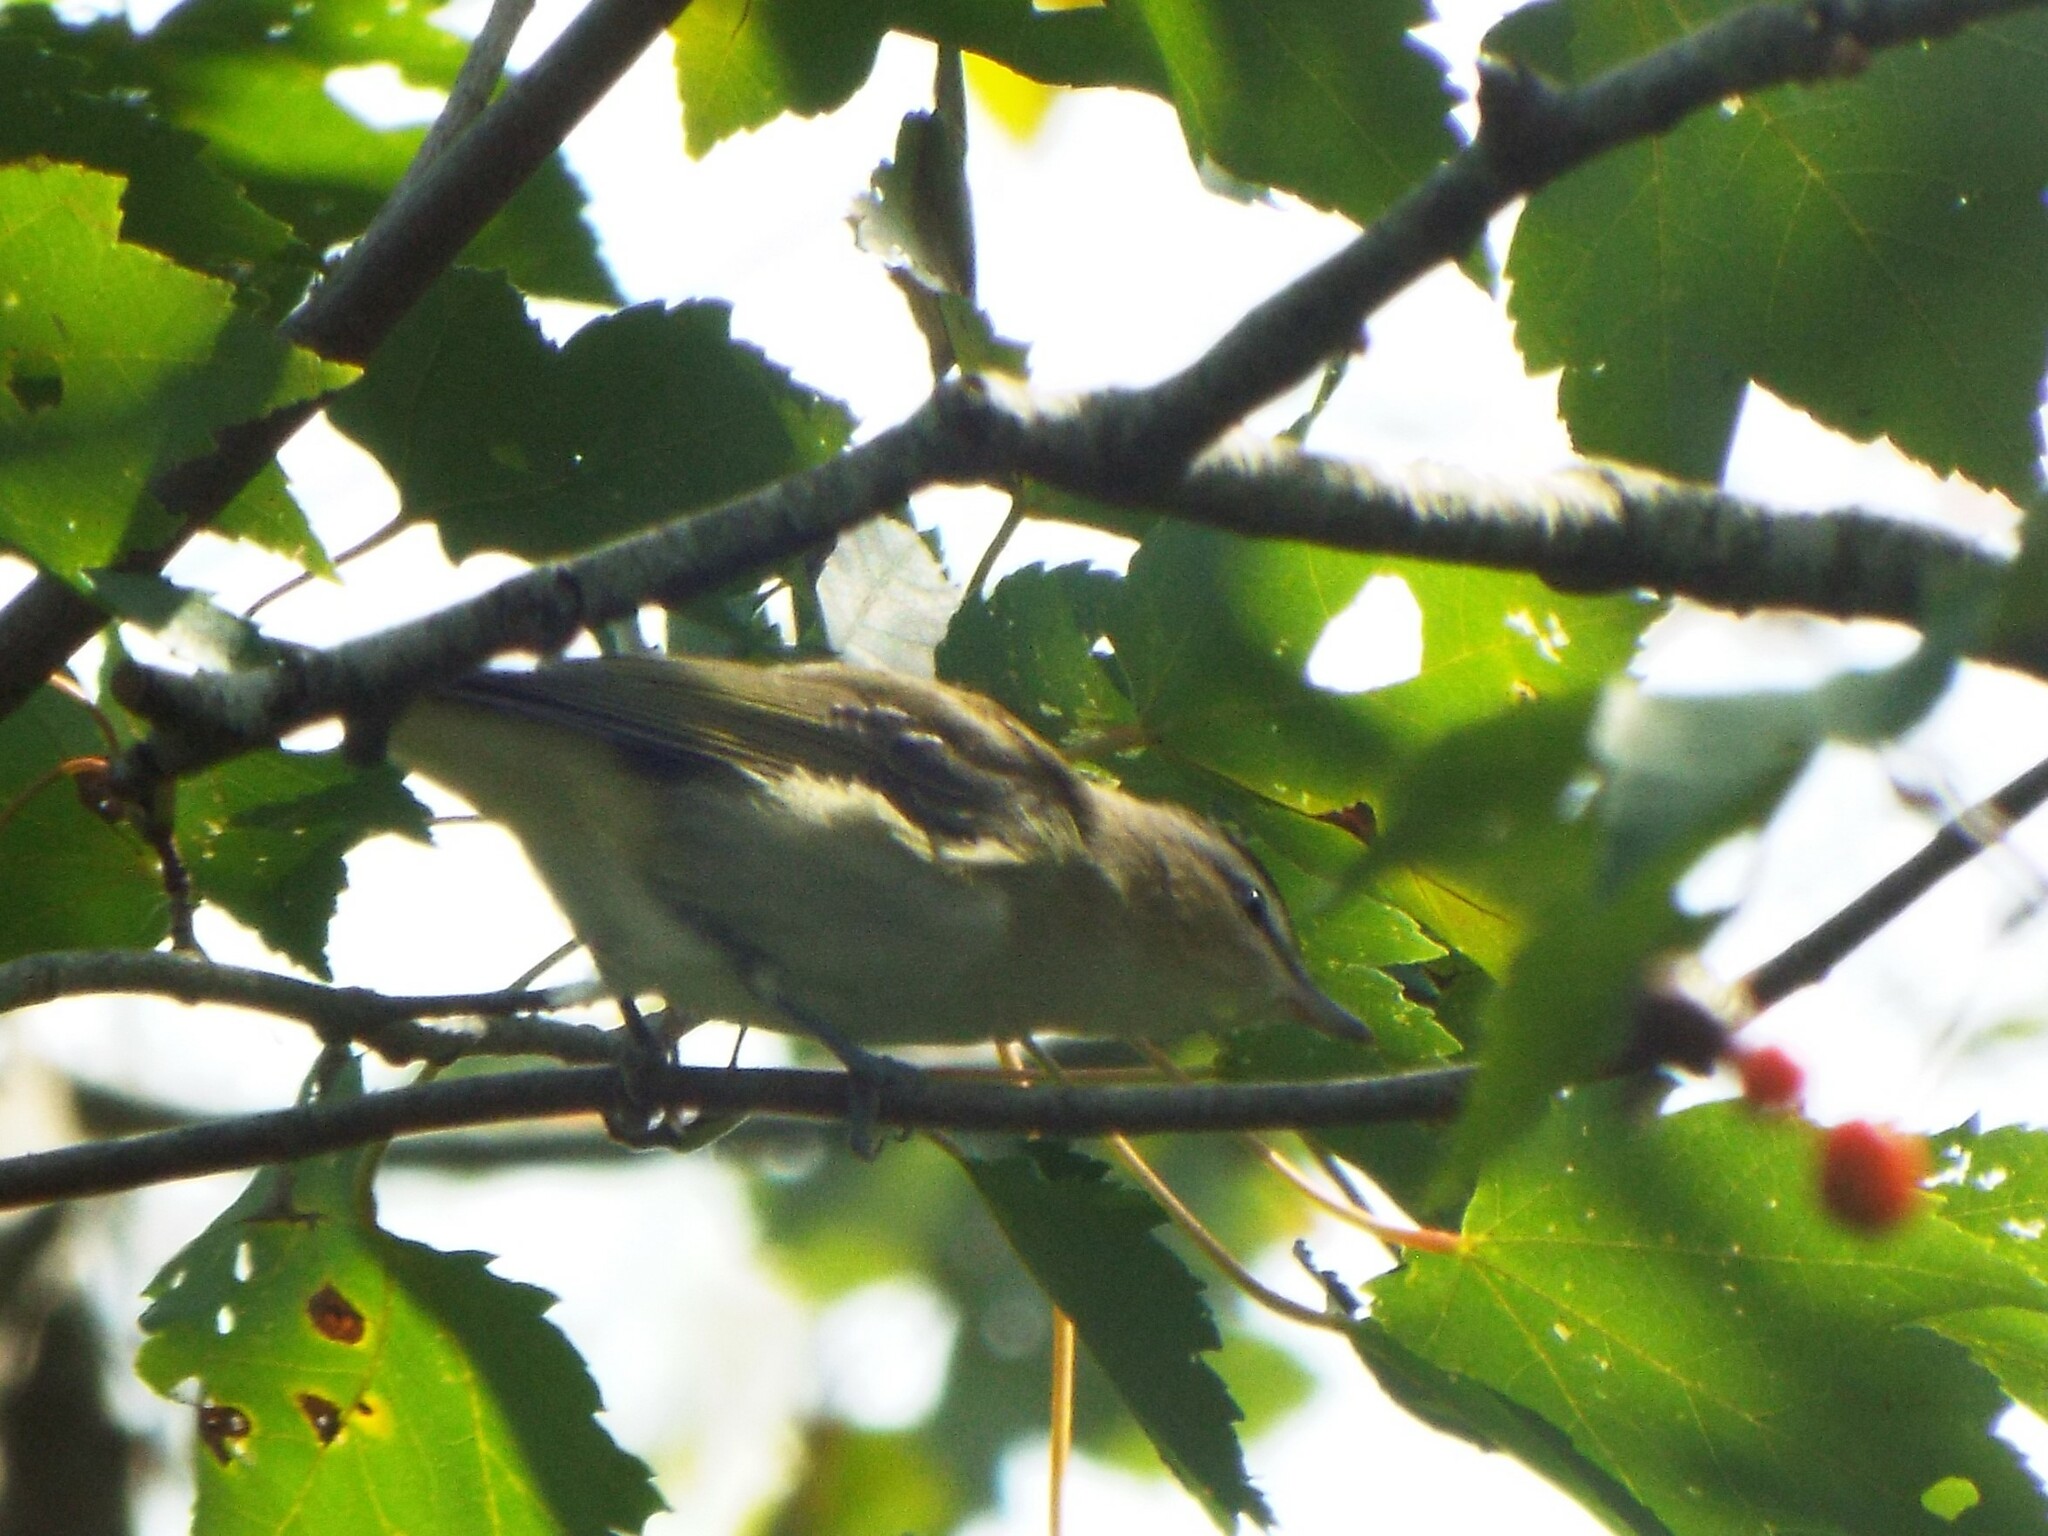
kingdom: Animalia
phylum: Chordata
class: Aves
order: Passeriformes
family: Vireonidae
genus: Vireo
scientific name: Vireo olivaceus
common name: Red-eyed vireo
